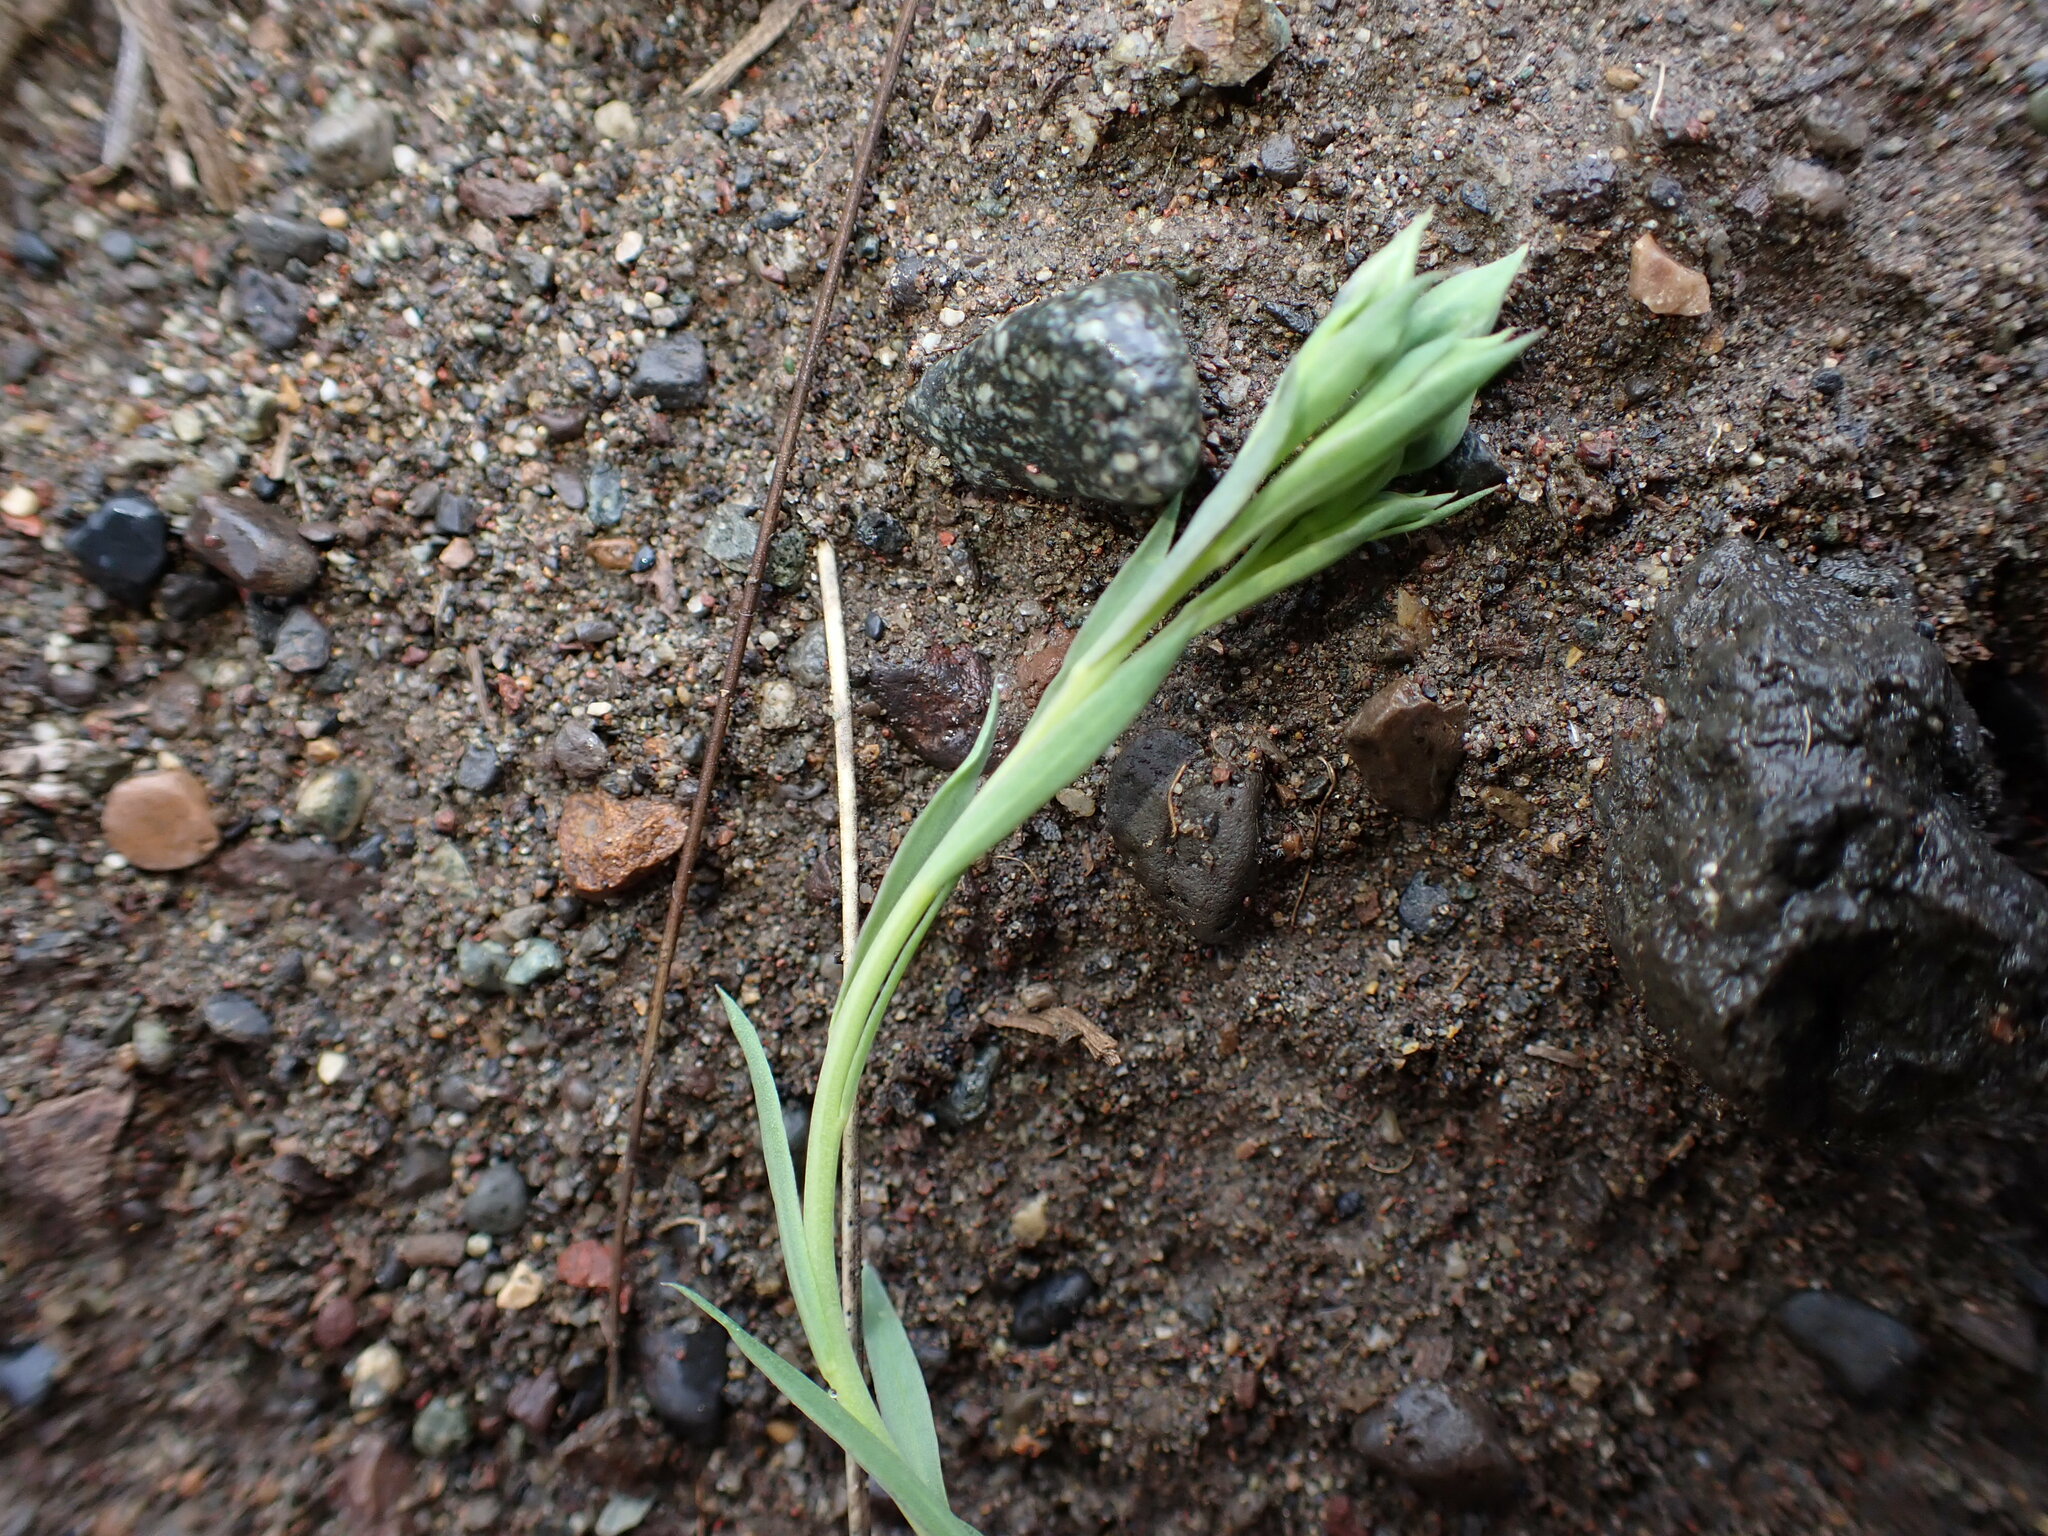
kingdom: Plantae
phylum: Tracheophyta
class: Magnoliopsida
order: Malpighiales
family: Linaceae
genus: Linum
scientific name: Linum lewisii
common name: Prairie flax
